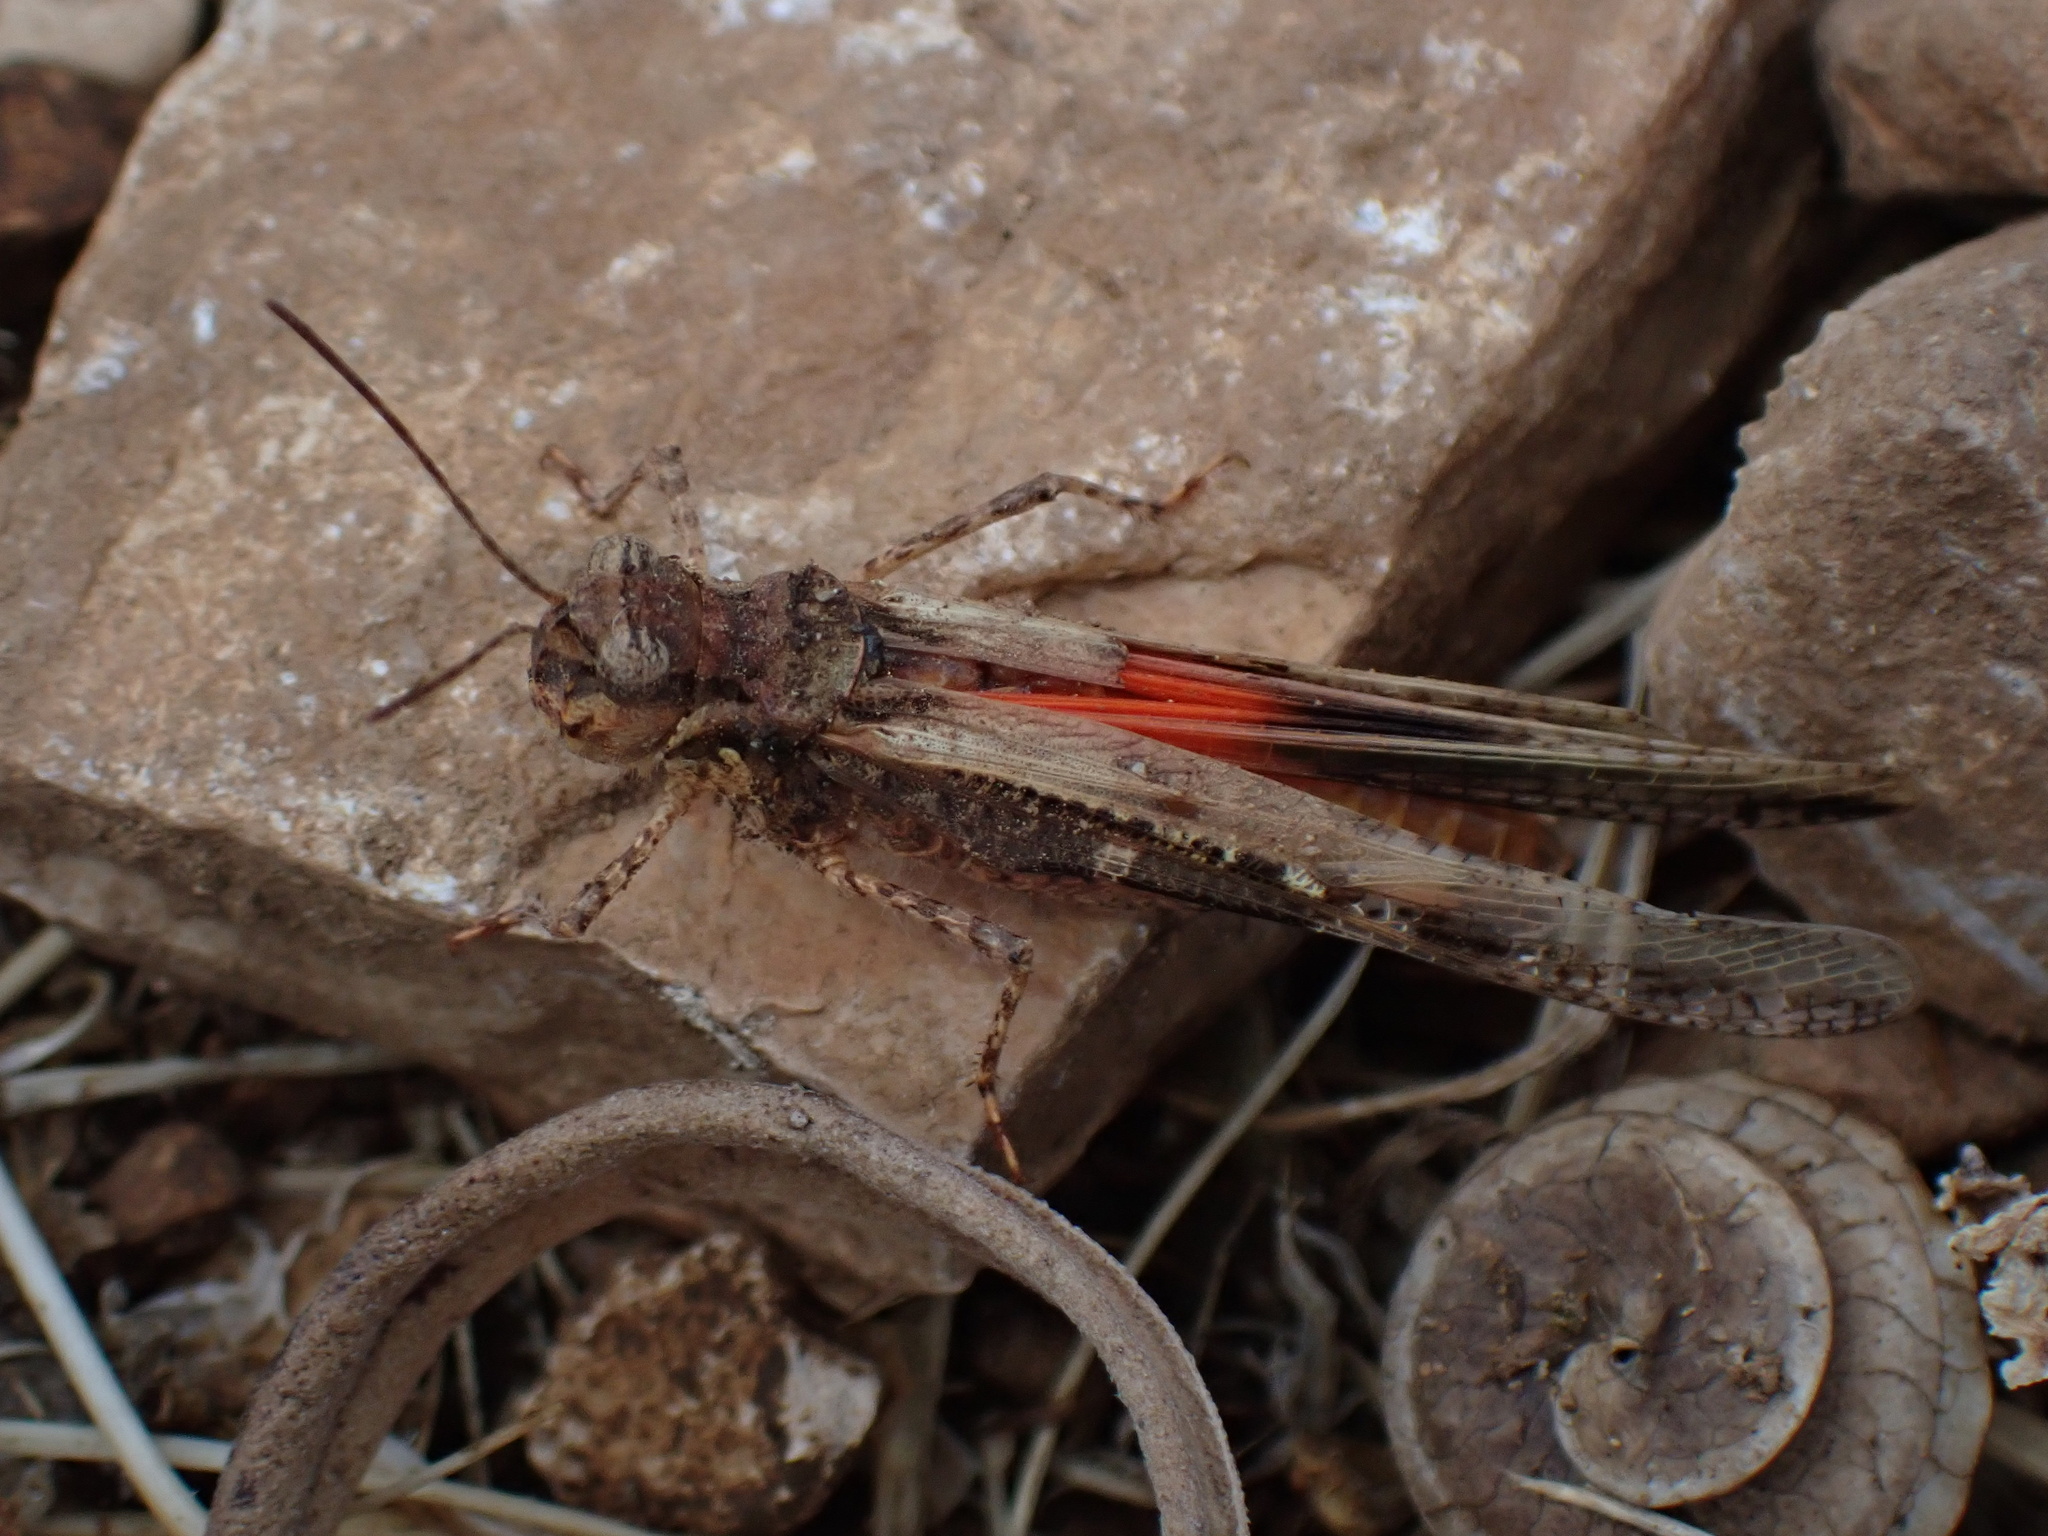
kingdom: Animalia
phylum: Arthropoda
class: Insecta
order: Orthoptera
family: Acrididae
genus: Acrotylus
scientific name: Acrotylus patruelis
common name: Slender burrowing grasshopper
